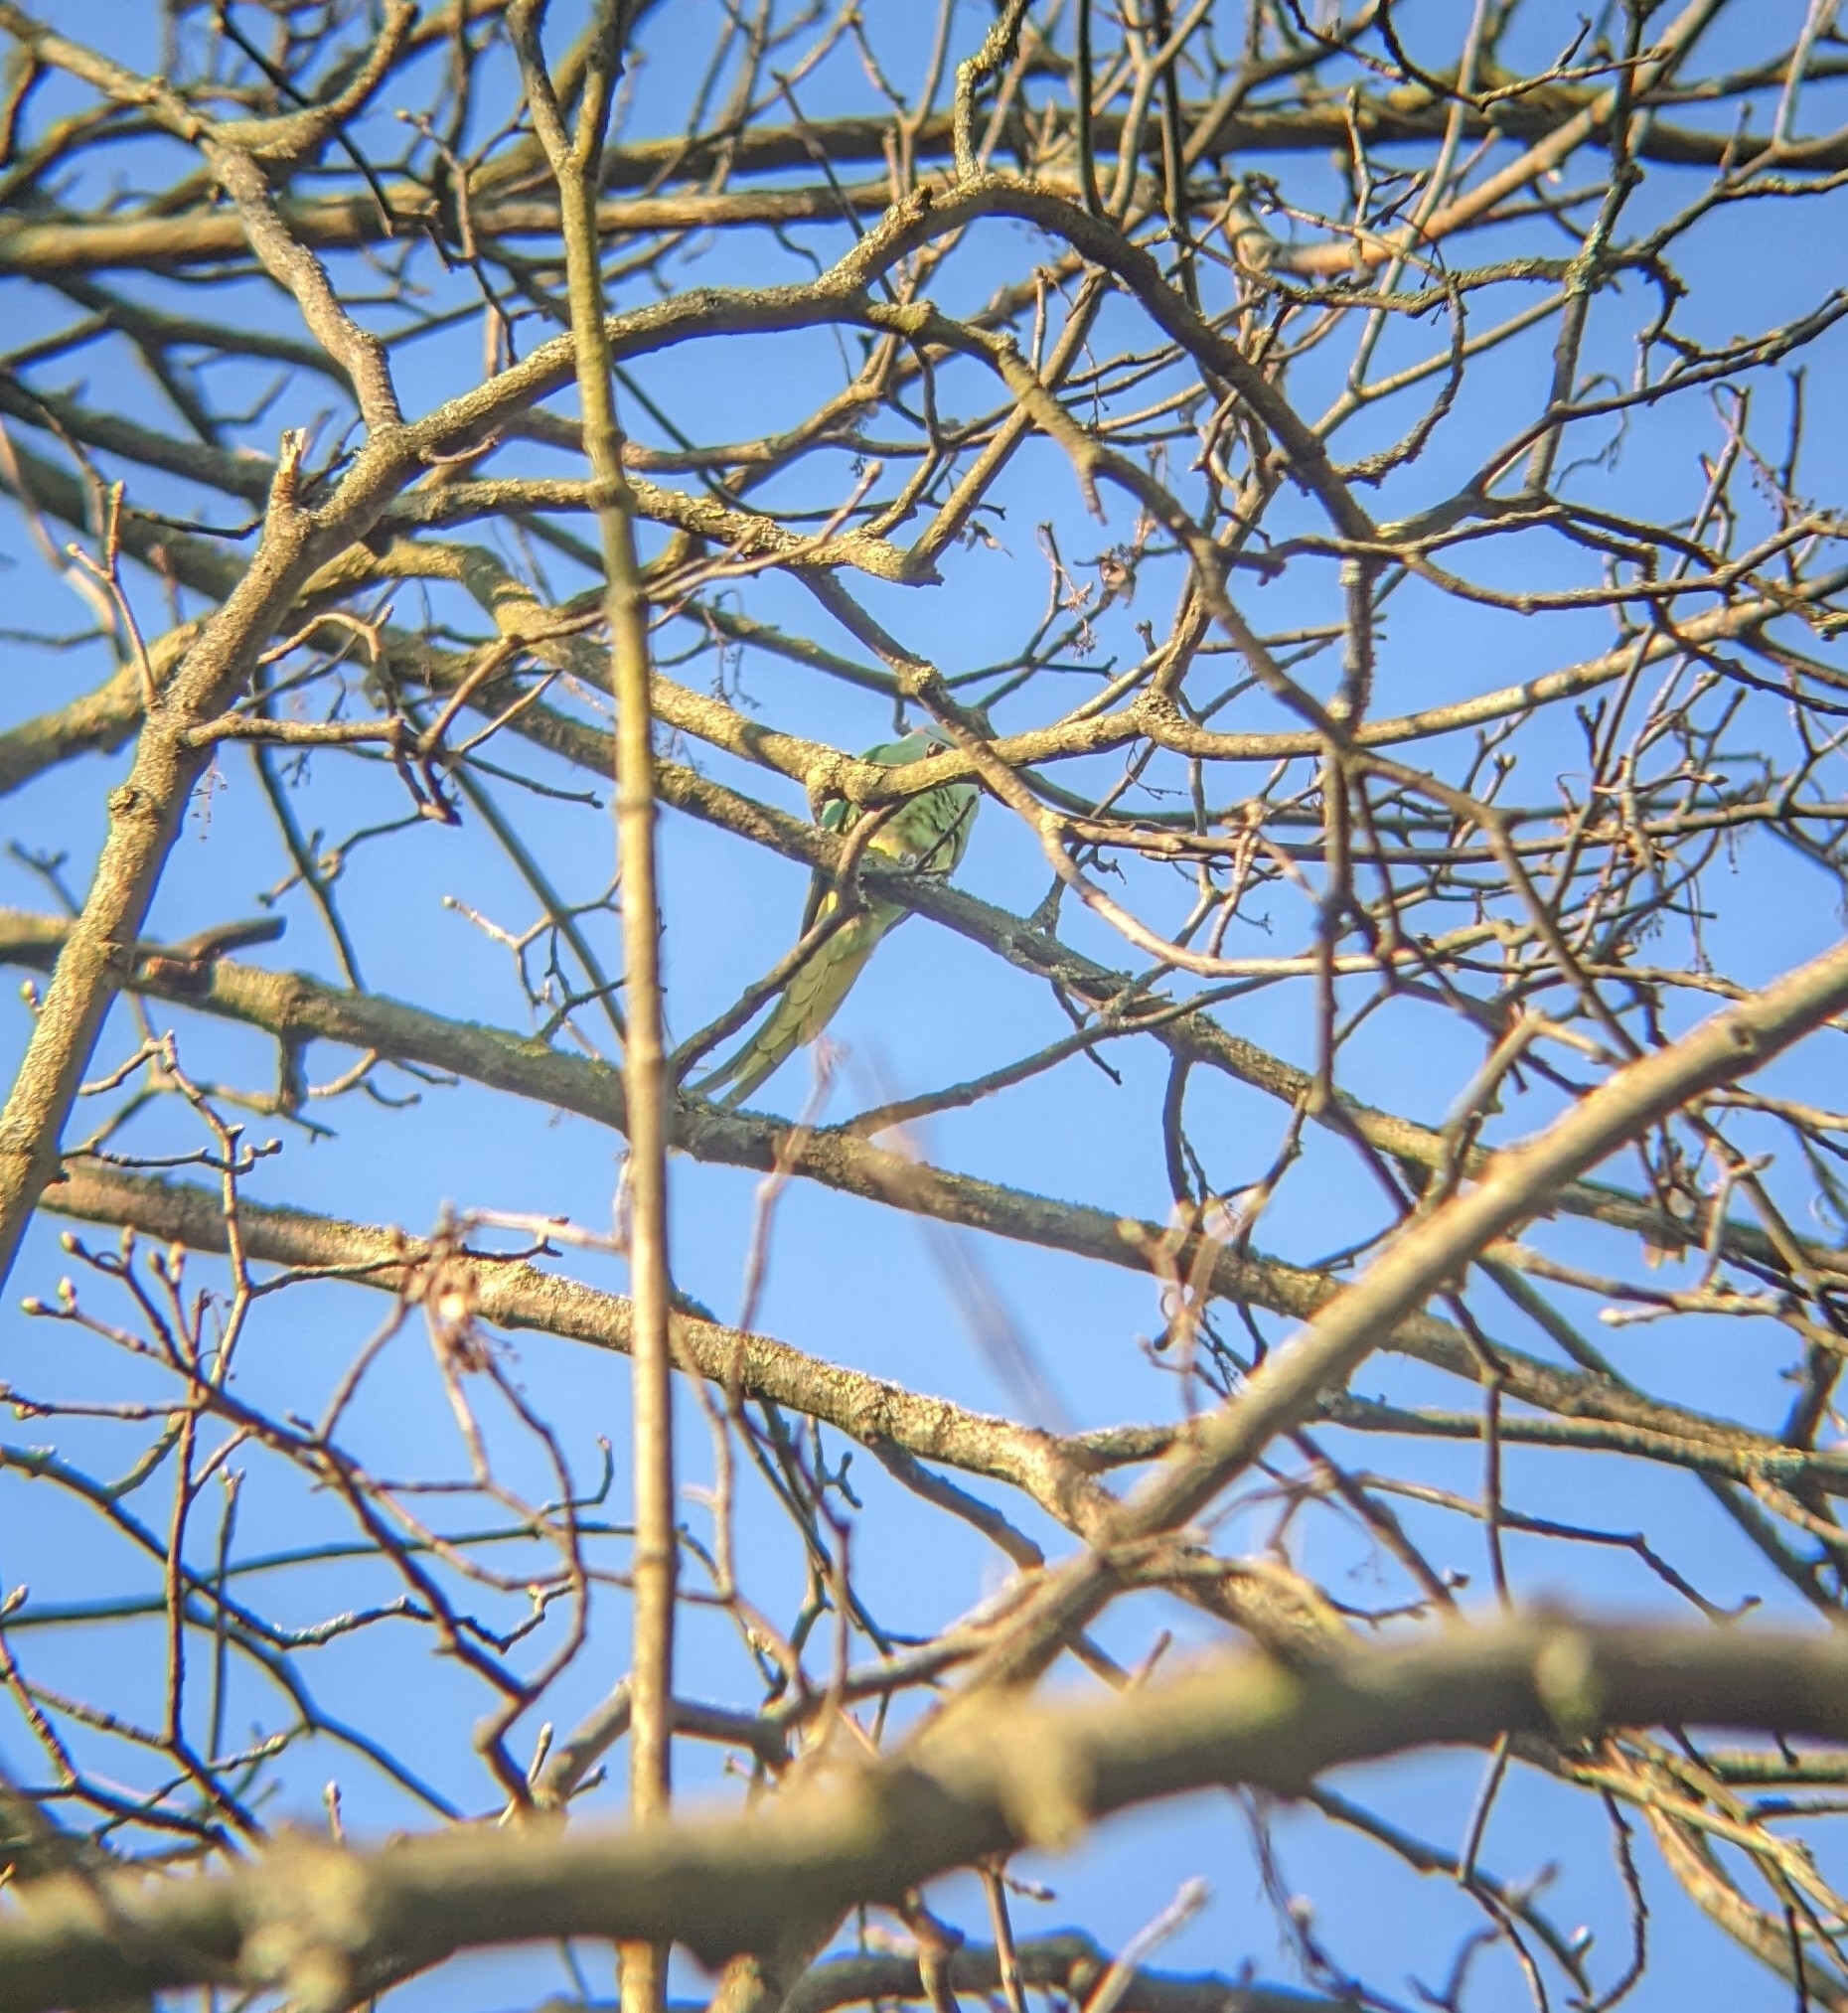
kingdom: Animalia
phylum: Chordata
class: Aves
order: Psittaciformes
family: Psittacidae
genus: Psittacula
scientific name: Psittacula krameri
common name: Rose-ringed parakeet
